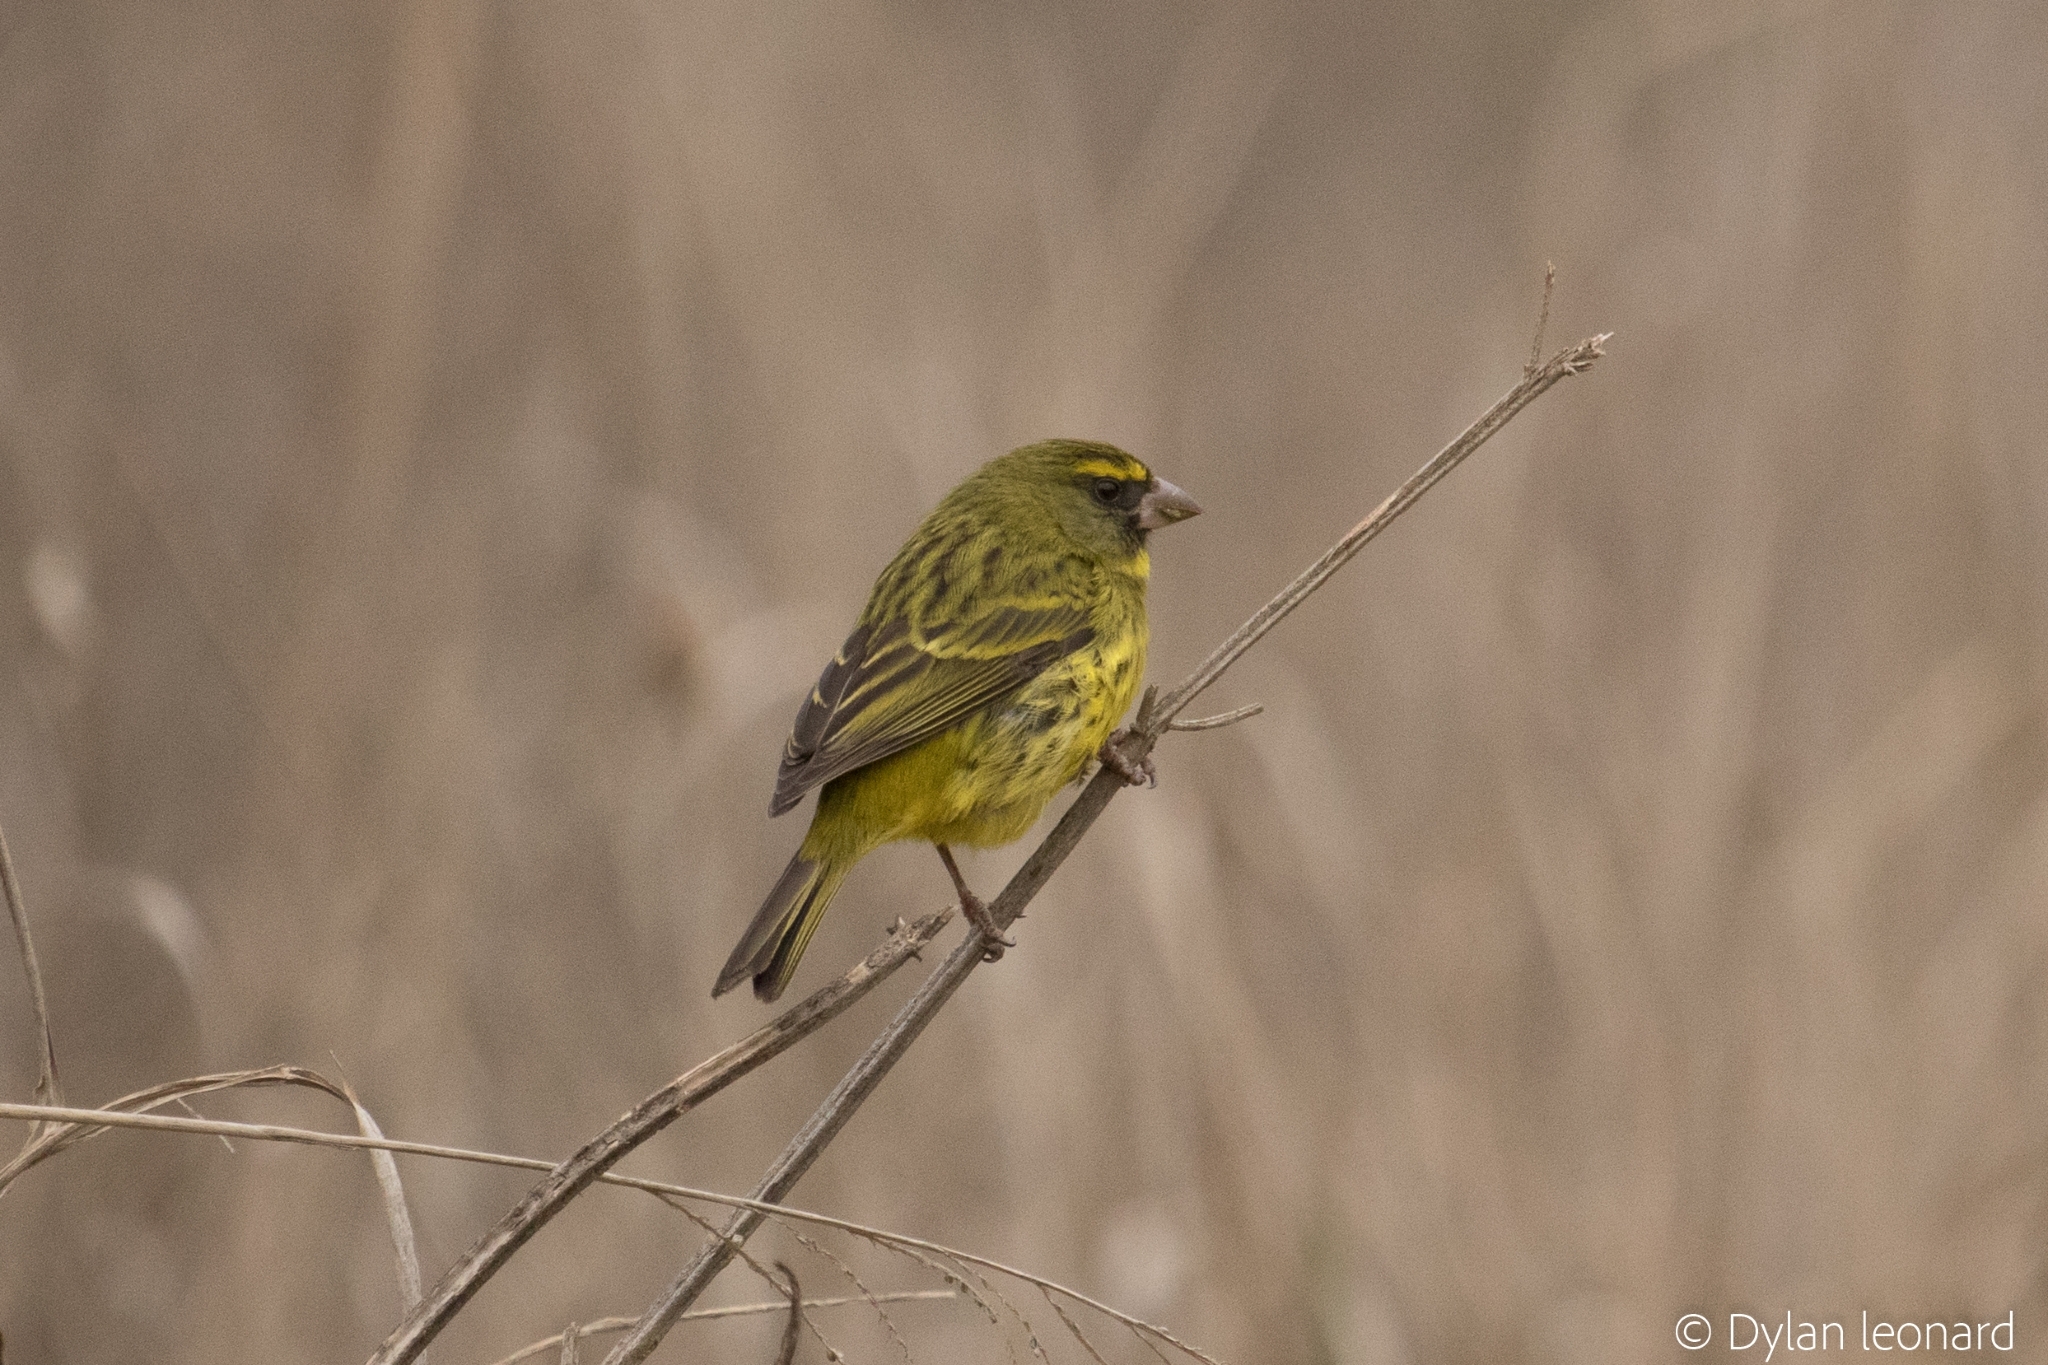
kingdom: Animalia
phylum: Chordata
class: Aves
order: Passeriformes
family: Fringillidae
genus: Crithagra
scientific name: Crithagra scotops
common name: Forest canary
